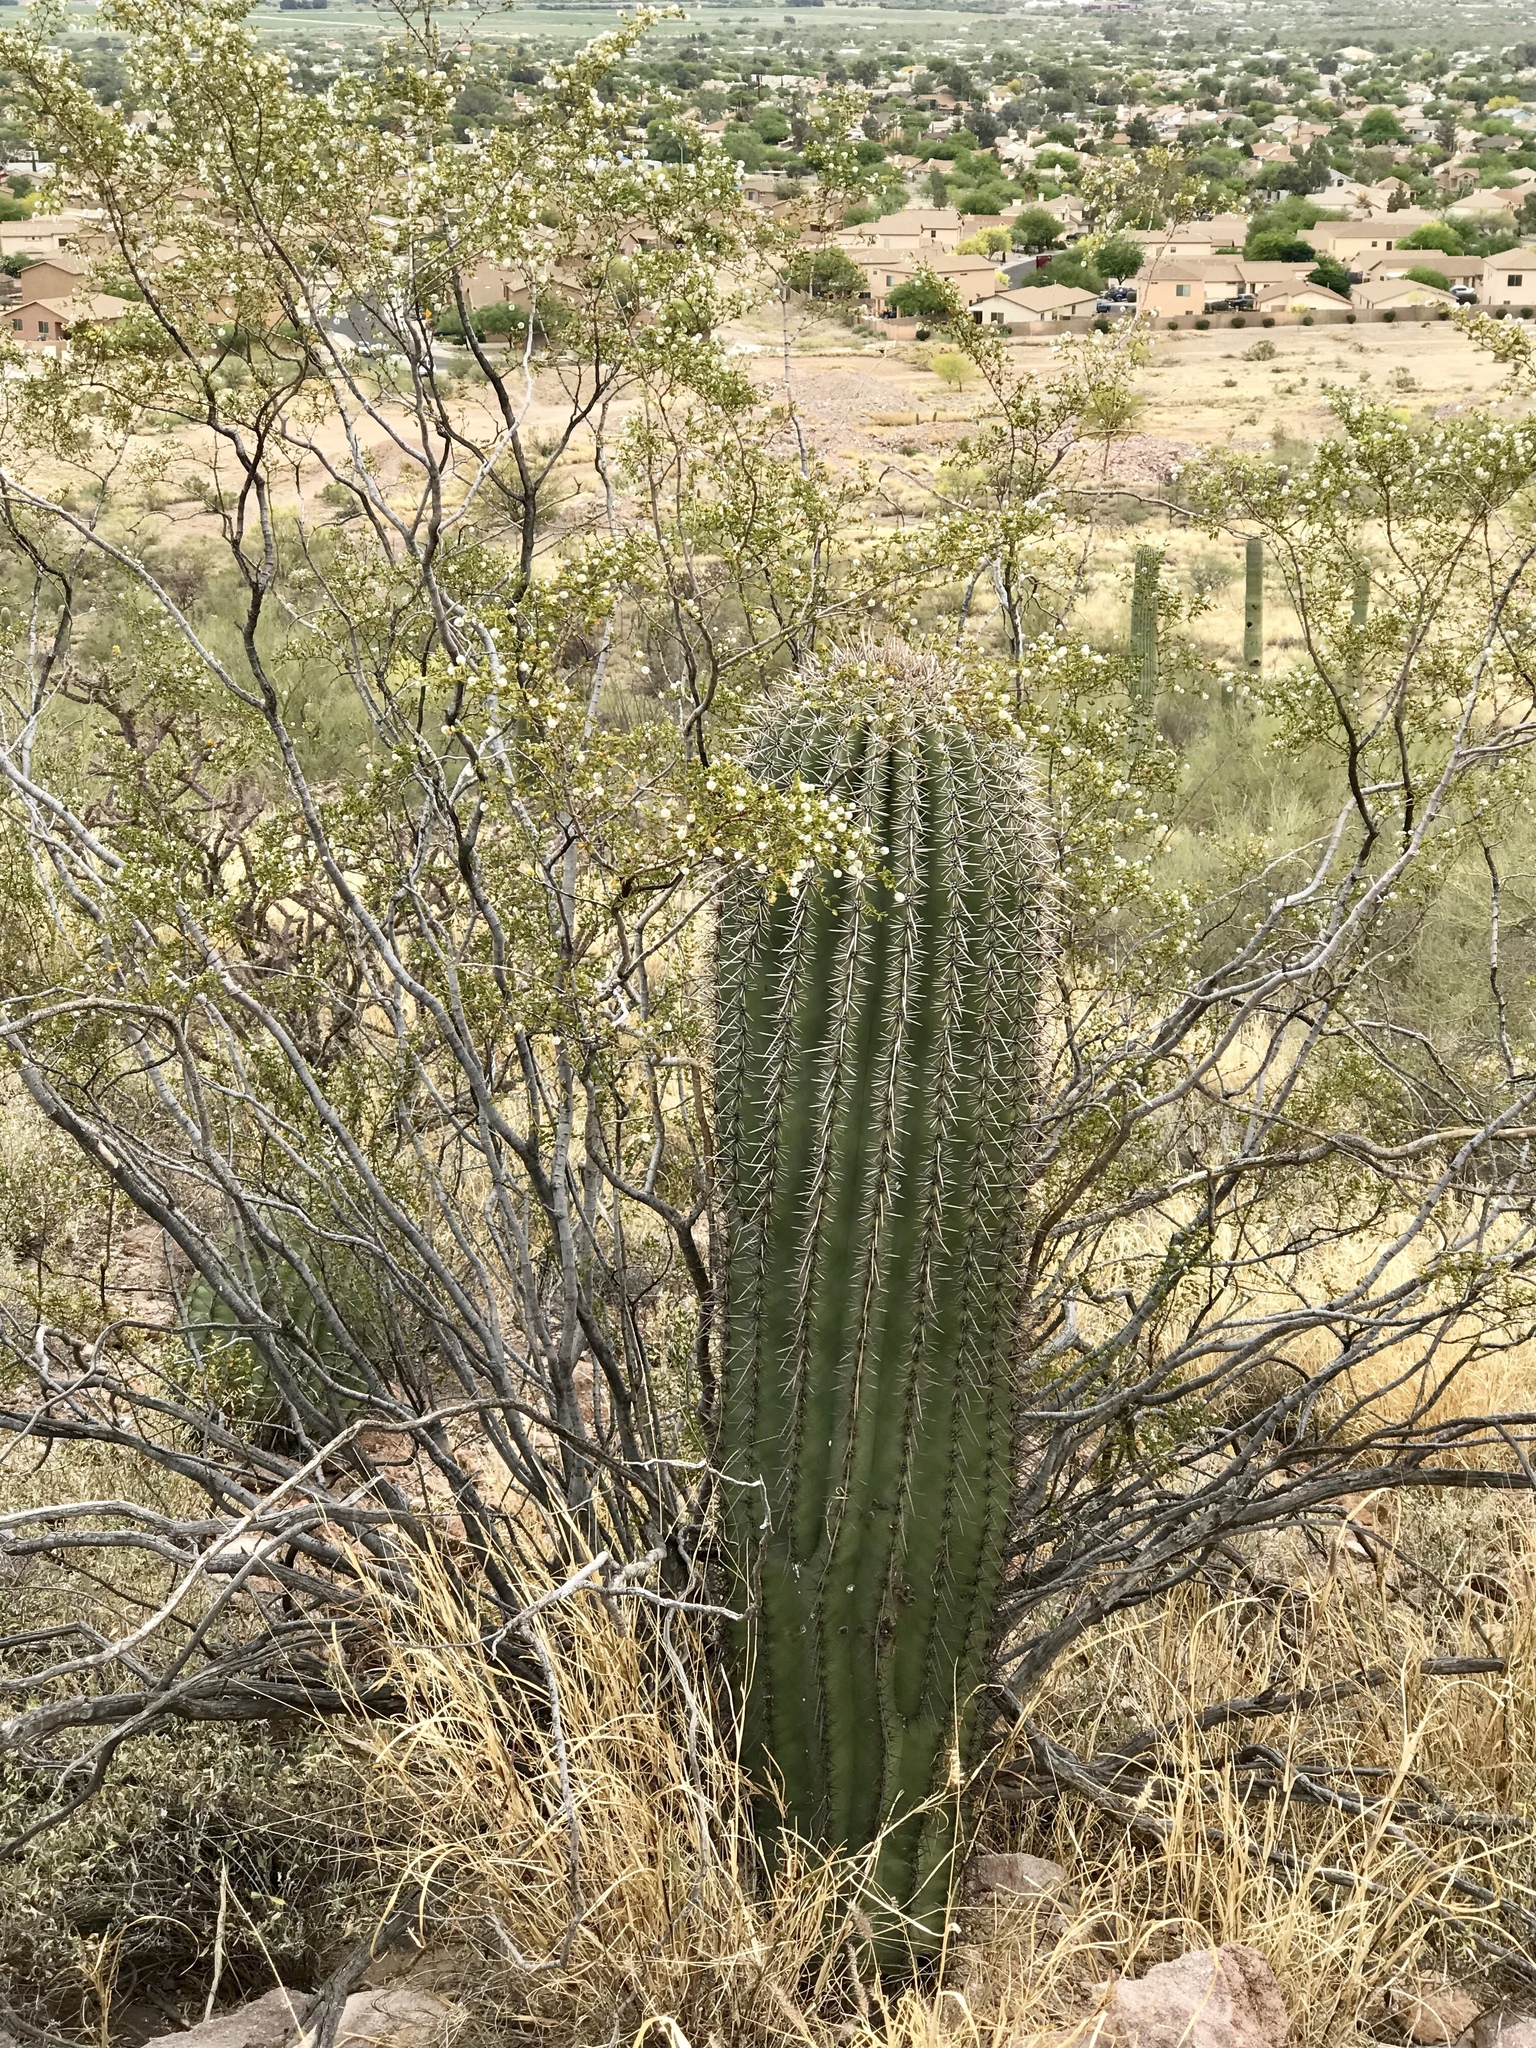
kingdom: Plantae
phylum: Tracheophyta
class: Magnoliopsida
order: Caryophyllales
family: Cactaceae
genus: Carnegiea
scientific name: Carnegiea gigantea
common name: Saguaro
